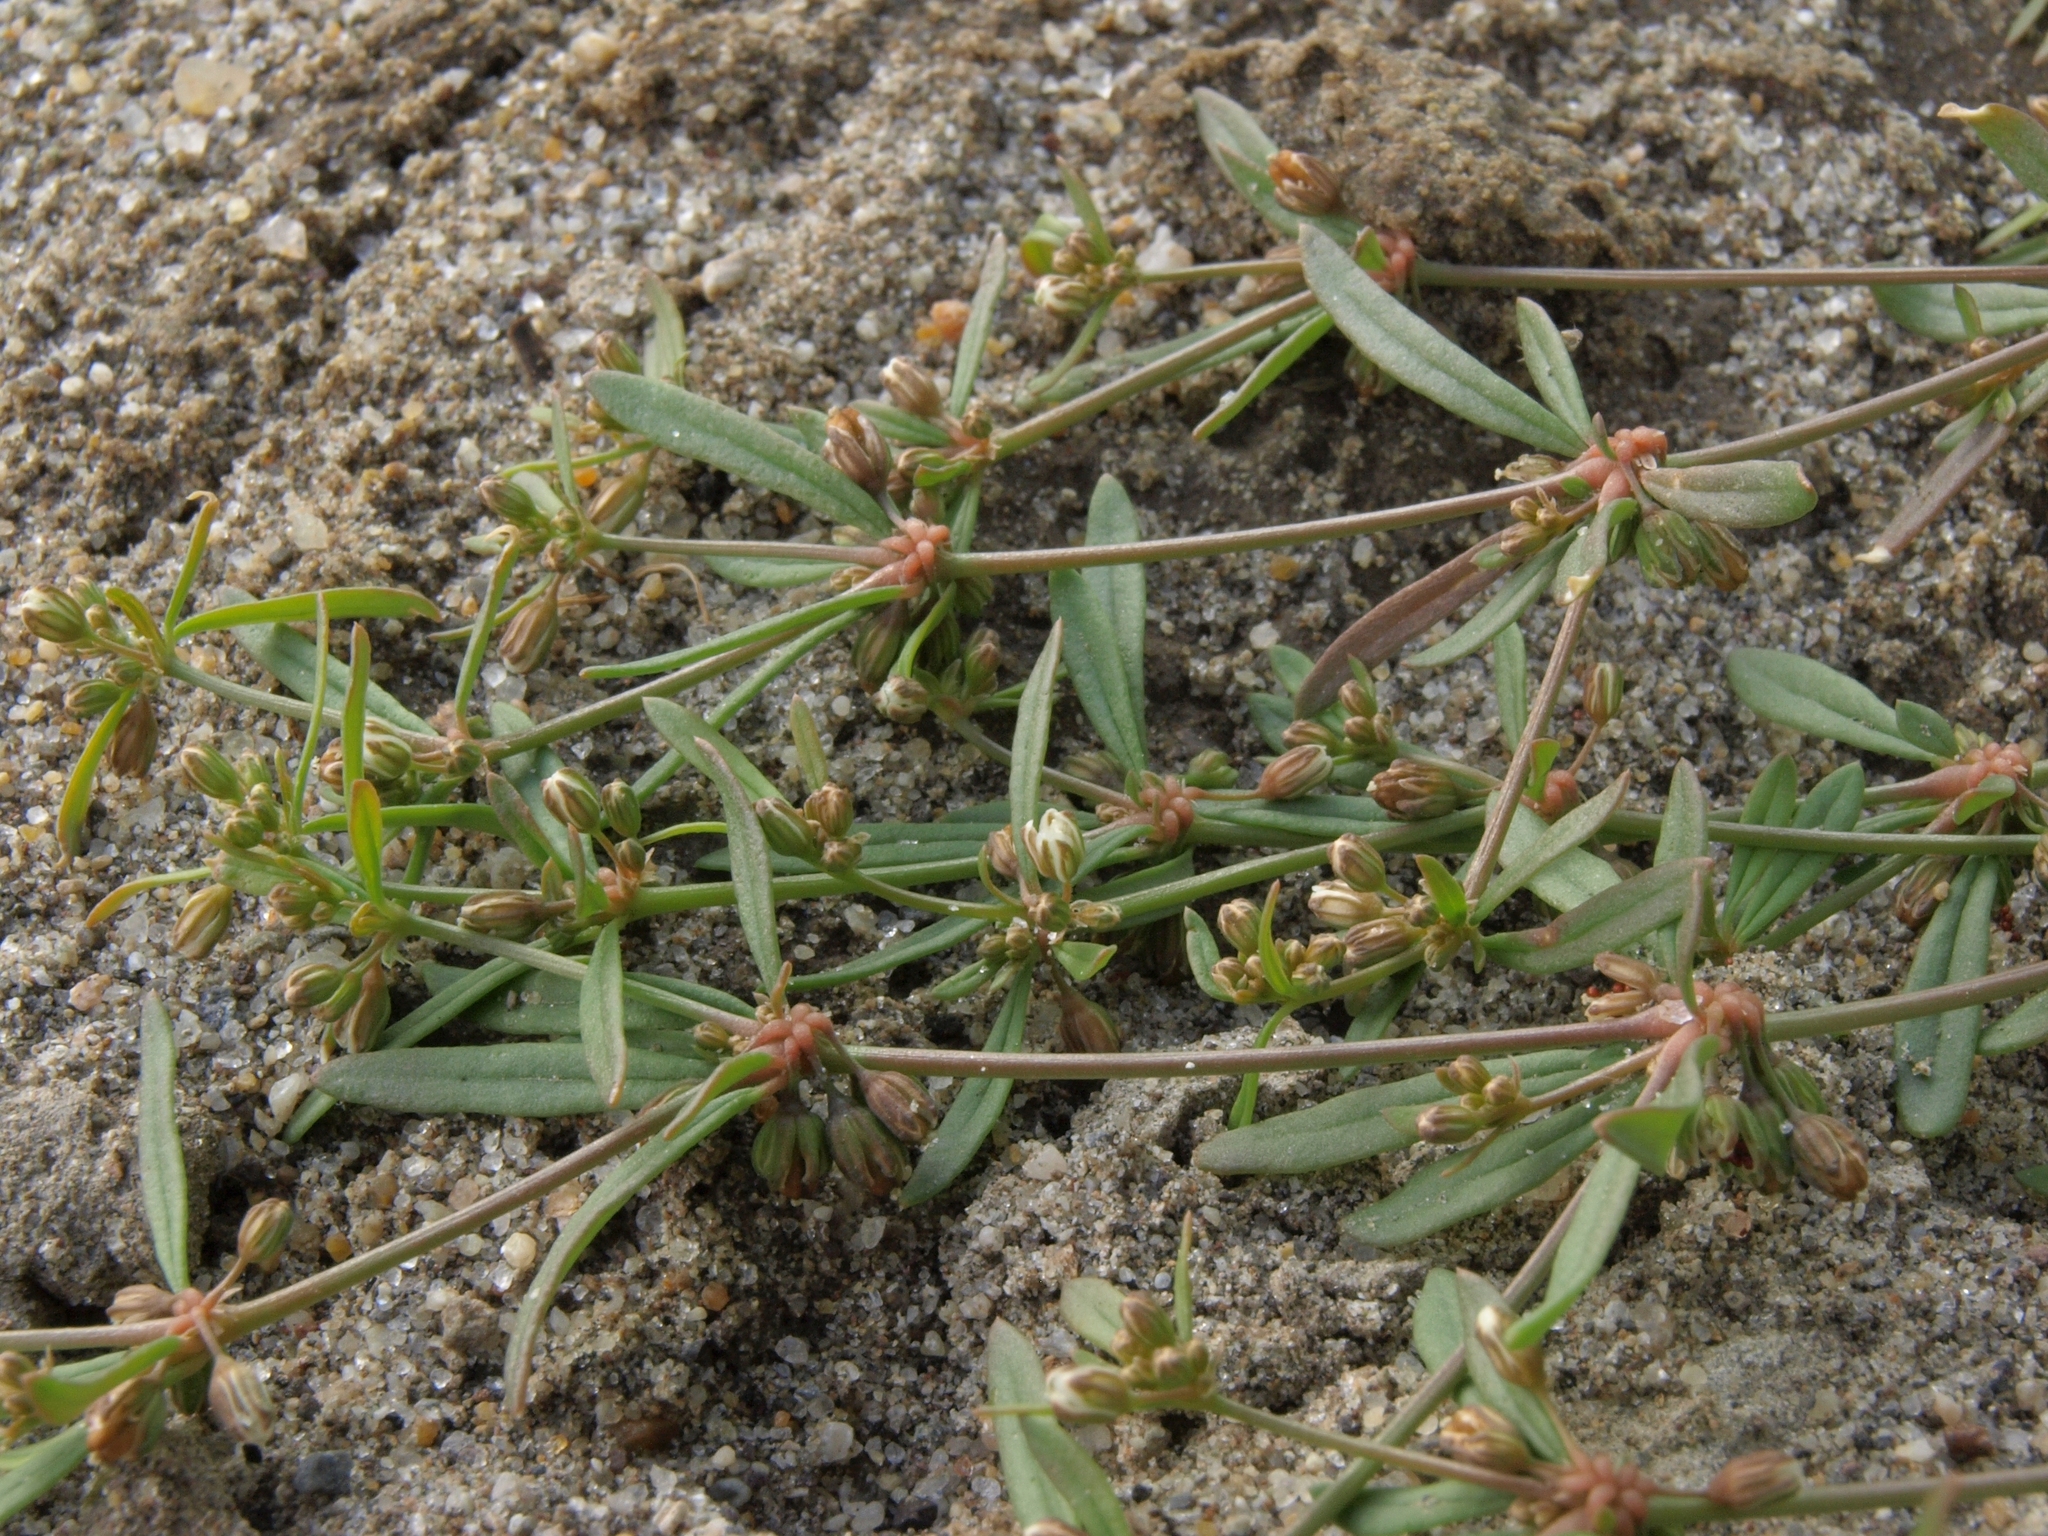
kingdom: Plantae
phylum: Tracheophyta
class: Magnoliopsida
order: Caryophyllales
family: Molluginaceae
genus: Mollugo
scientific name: Mollugo verticillata
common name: Green carpetweed
